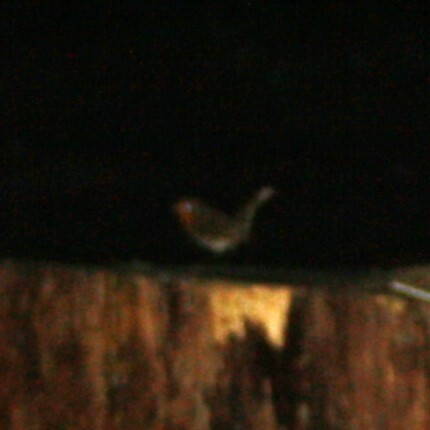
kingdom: Animalia
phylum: Chordata
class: Aves
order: Passeriformes
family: Muscicapidae
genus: Erithacus
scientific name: Erithacus rubecula
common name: European robin
